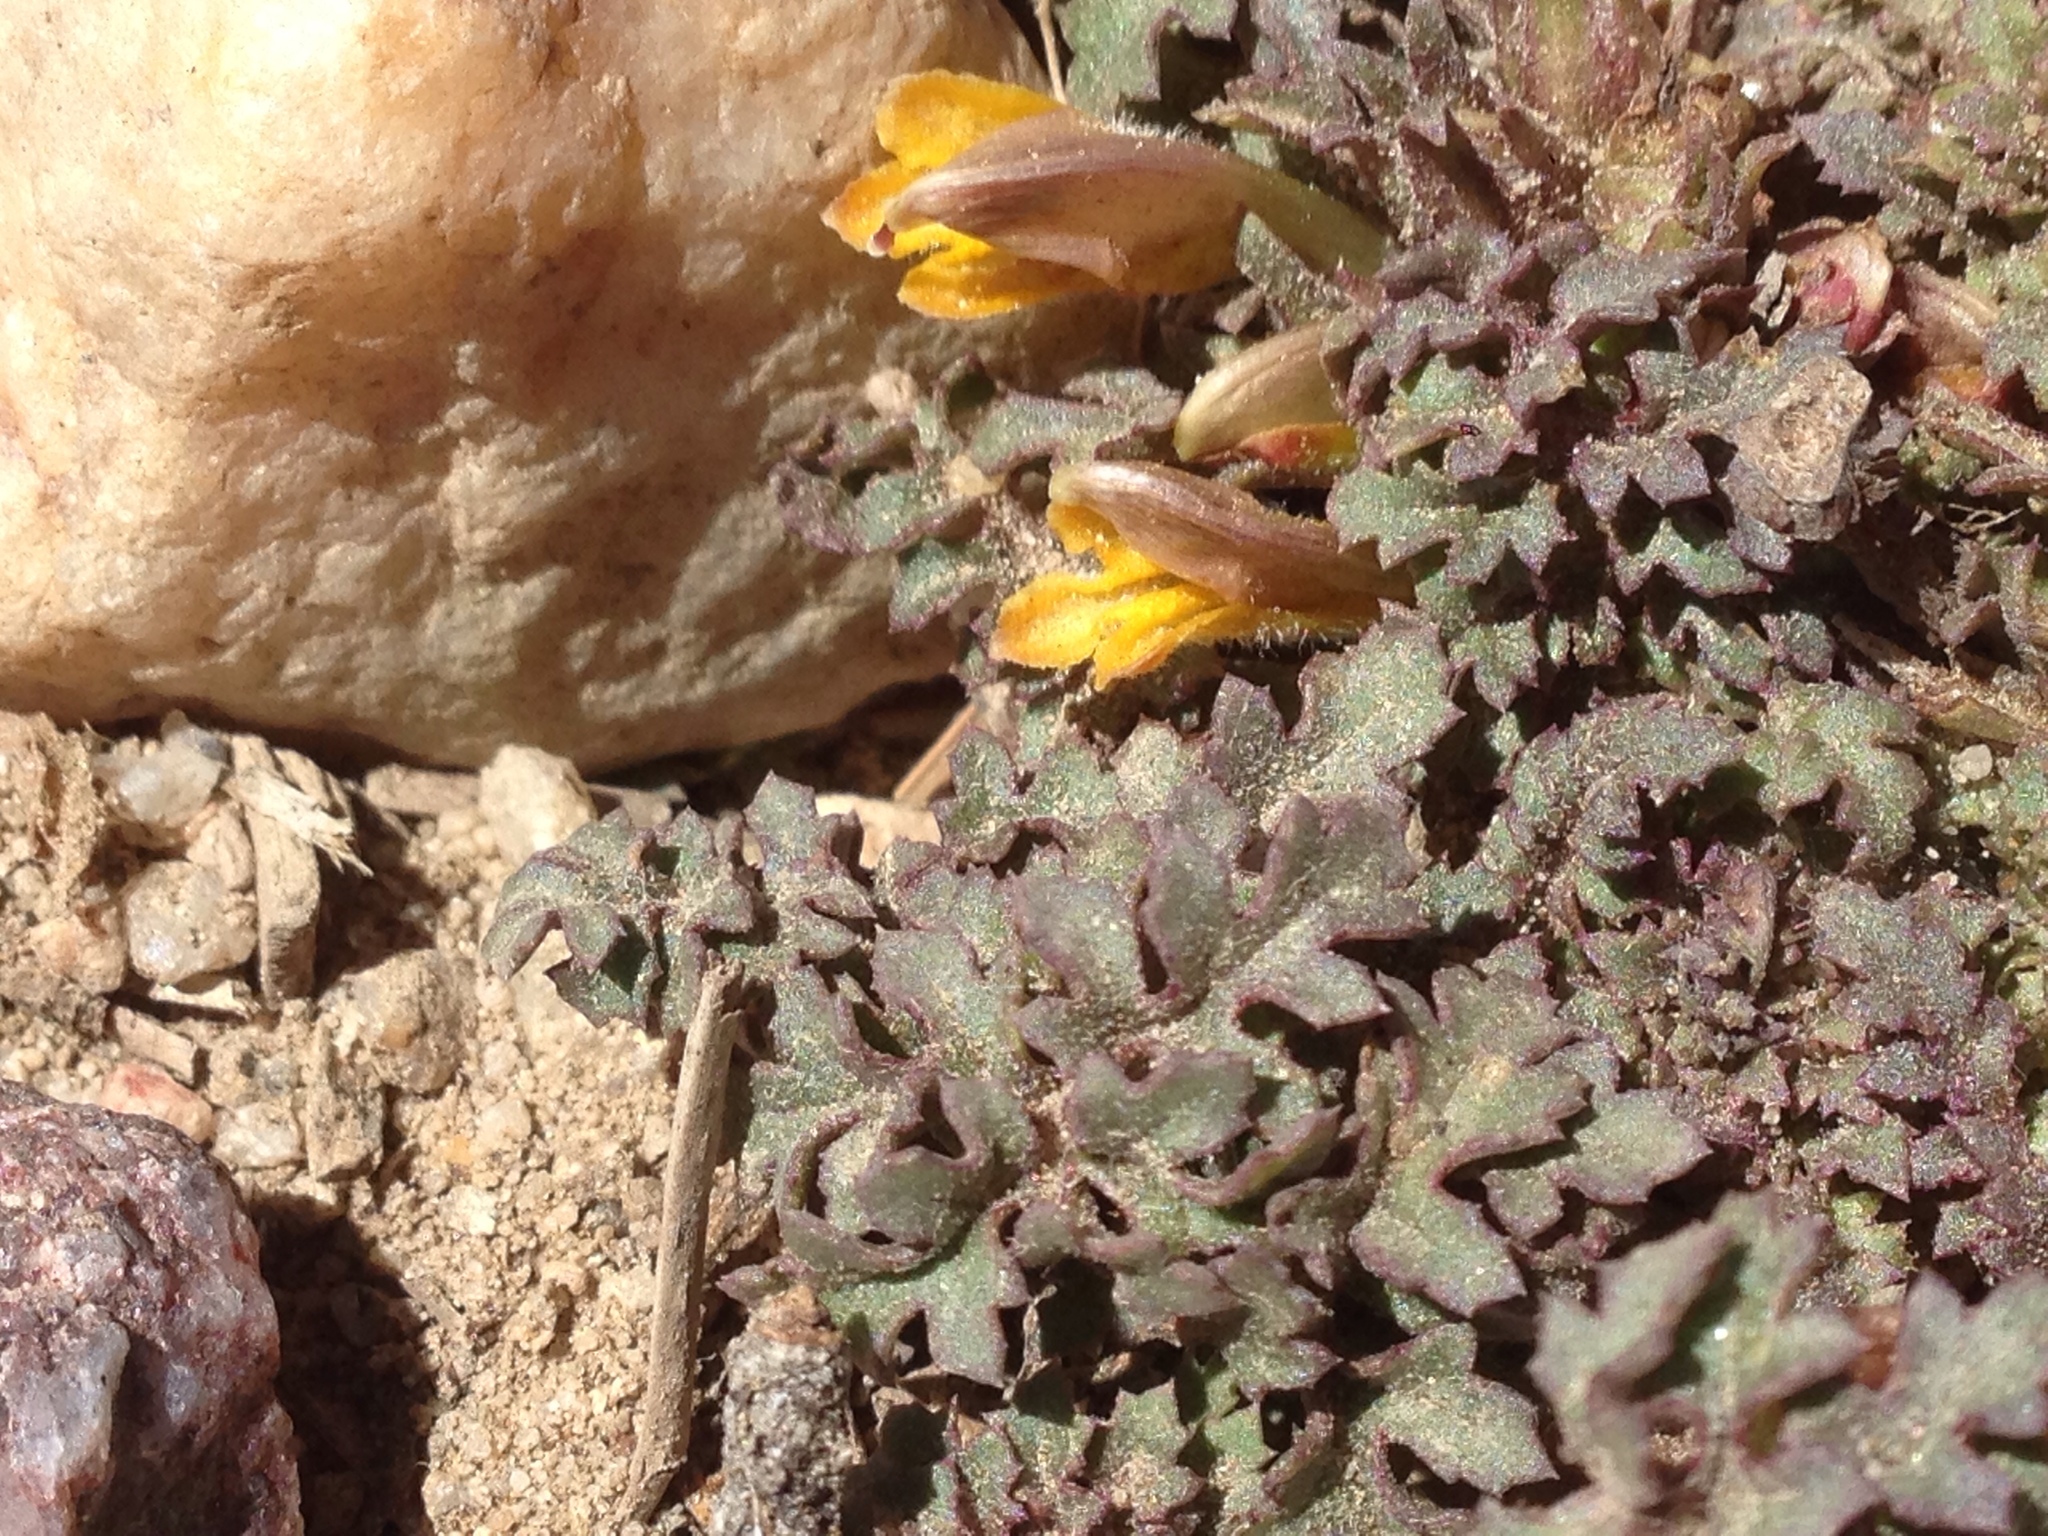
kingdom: Plantae
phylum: Tracheophyta
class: Magnoliopsida
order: Lamiales
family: Orobanchaceae
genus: Pedicularis
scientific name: Pedicularis semibarbata
